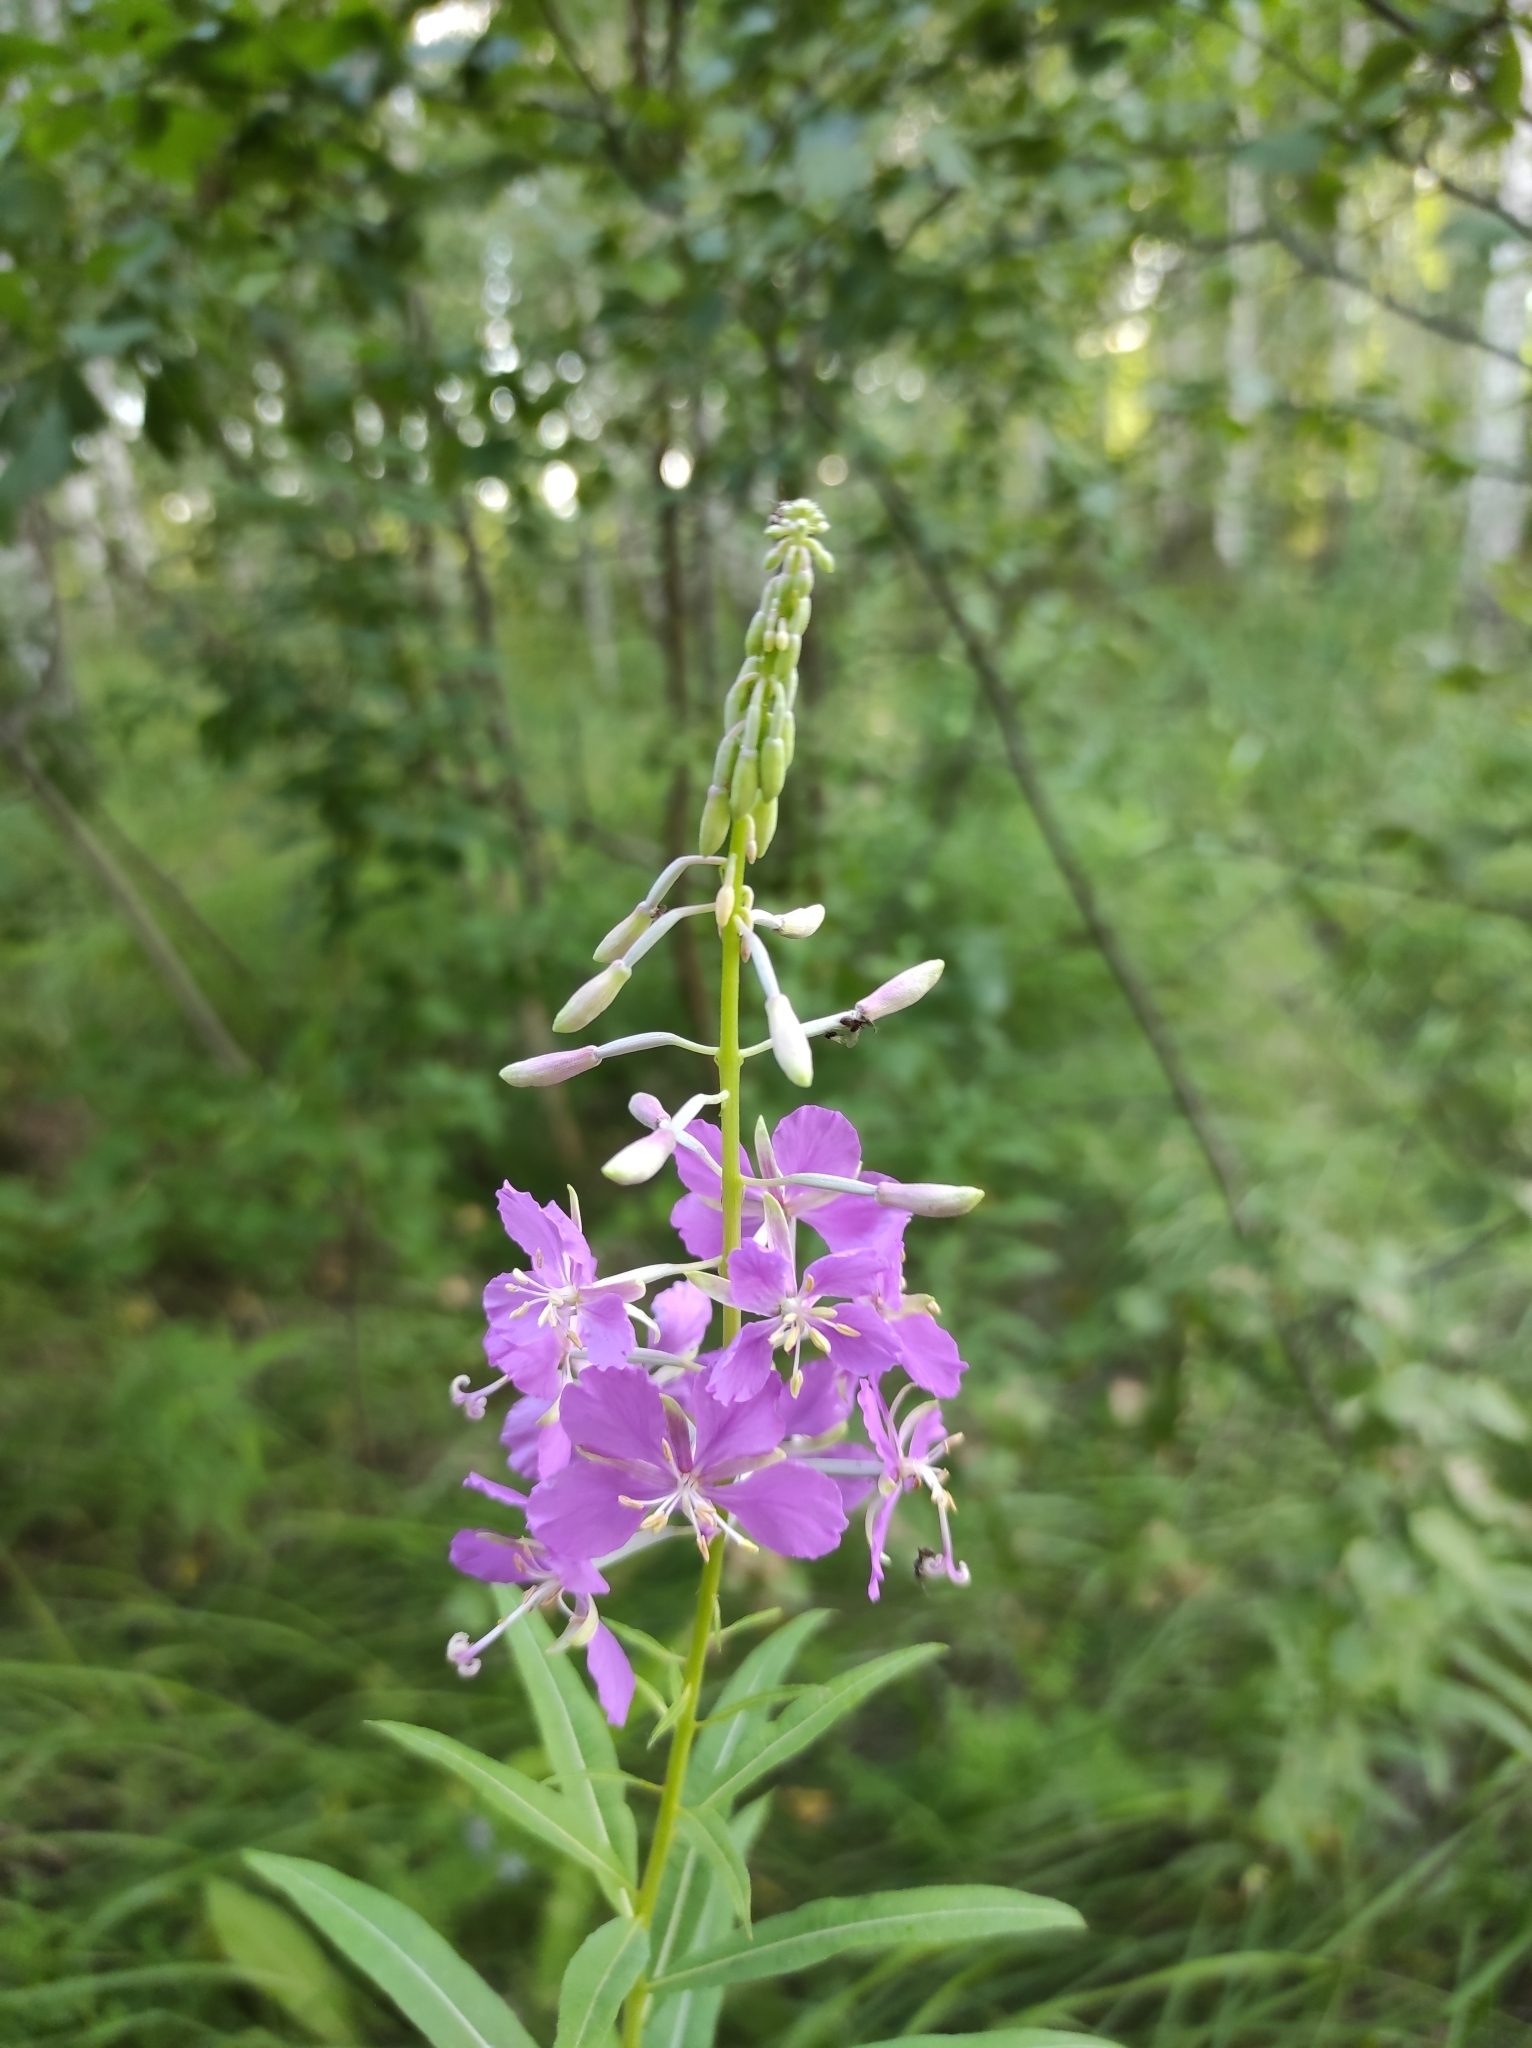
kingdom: Plantae
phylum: Tracheophyta
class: Magnoliopsida
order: Myrtales
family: Onagraceae
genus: Chamaenerion
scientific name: Chamaenerion angustifolium
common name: Fireweed
